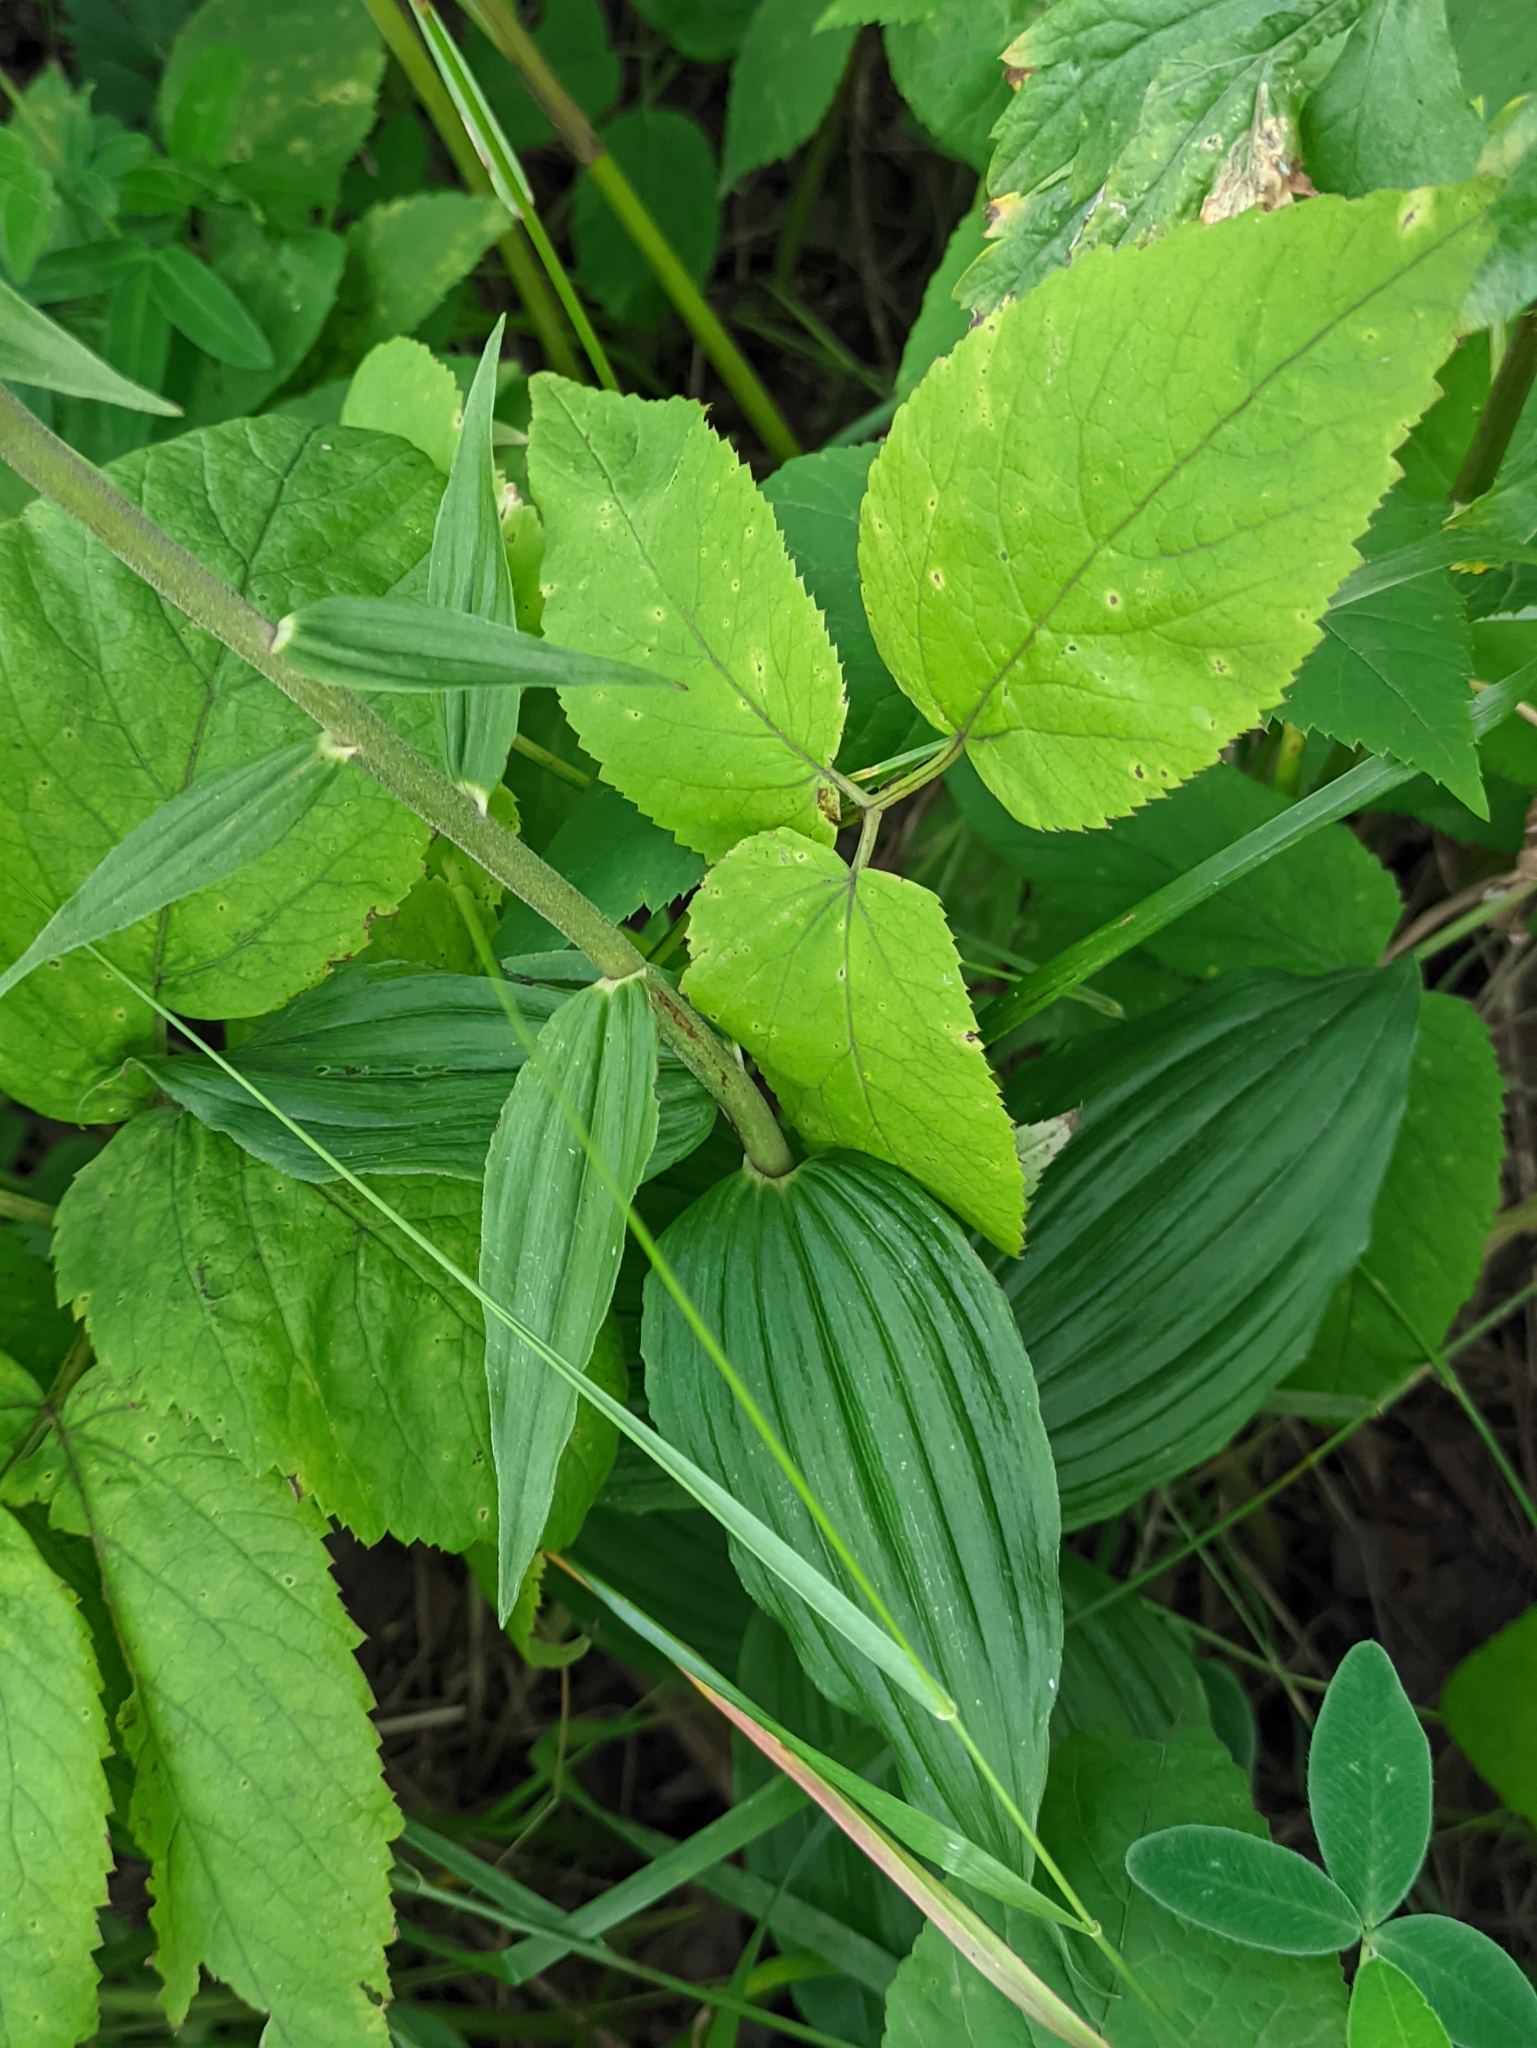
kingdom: Plantae
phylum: Tracheophyta
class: Liliopsida
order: Asparagales
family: Orchidaceae
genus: Epipactis
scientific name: Epipactis helleborine
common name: Broad-leaved helleborine
